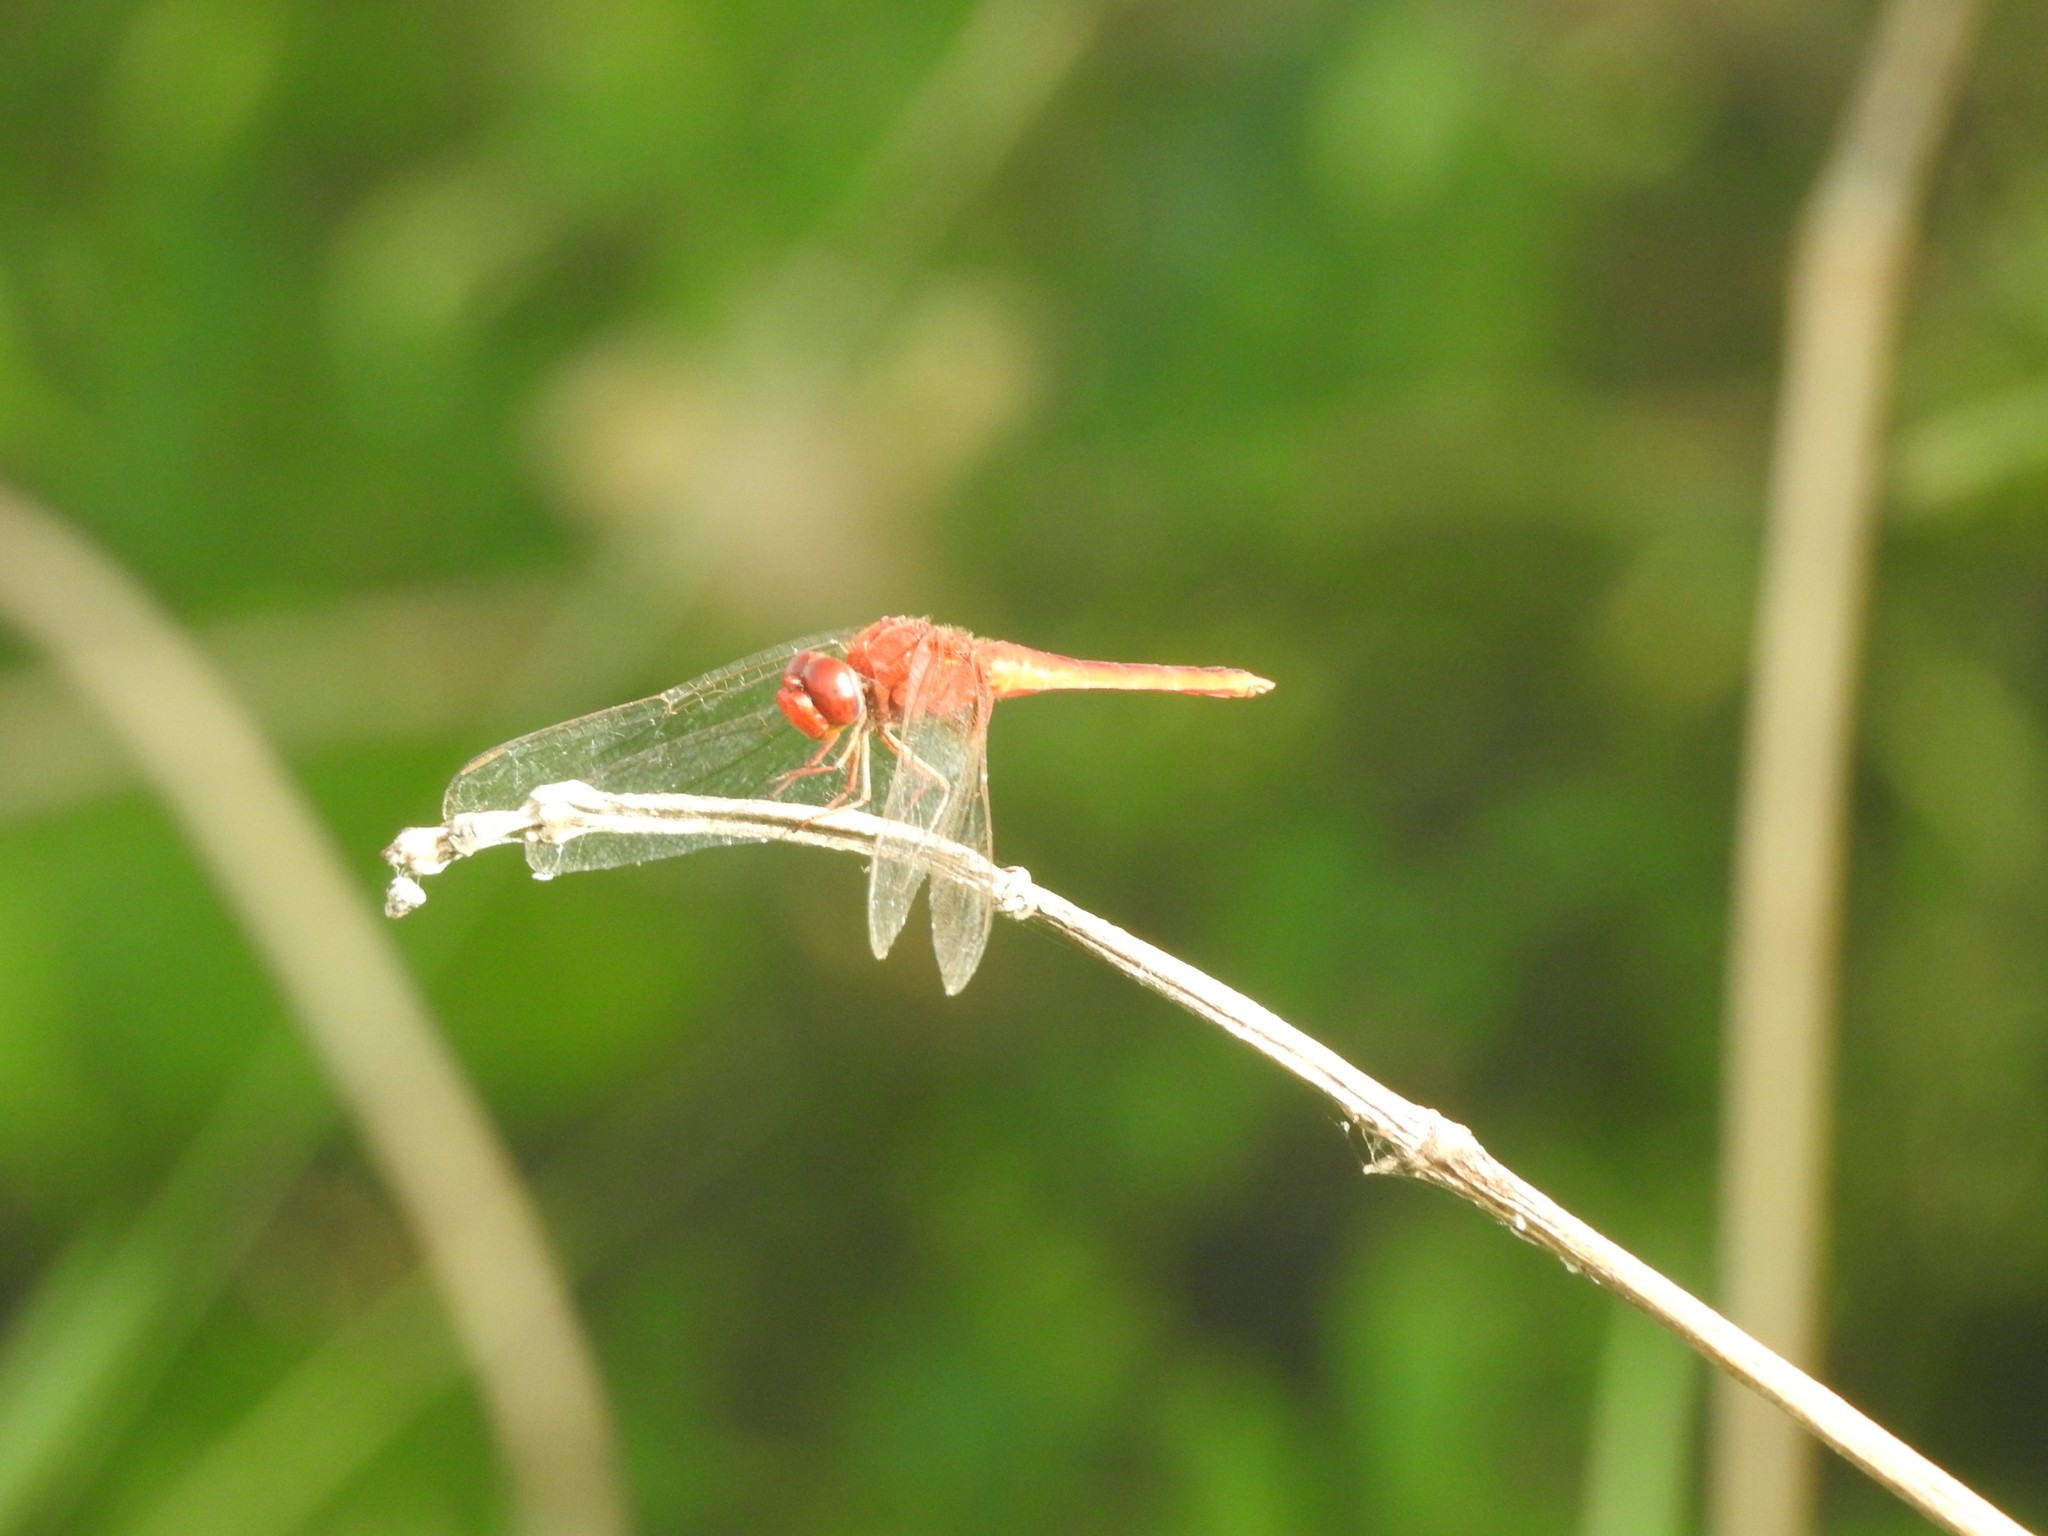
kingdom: Animalia
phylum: Arthropoda
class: Insecta
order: Odonata
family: Libellulidae
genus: Crocothemis
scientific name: Crocothemis servilia
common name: Scarlet skimmer
